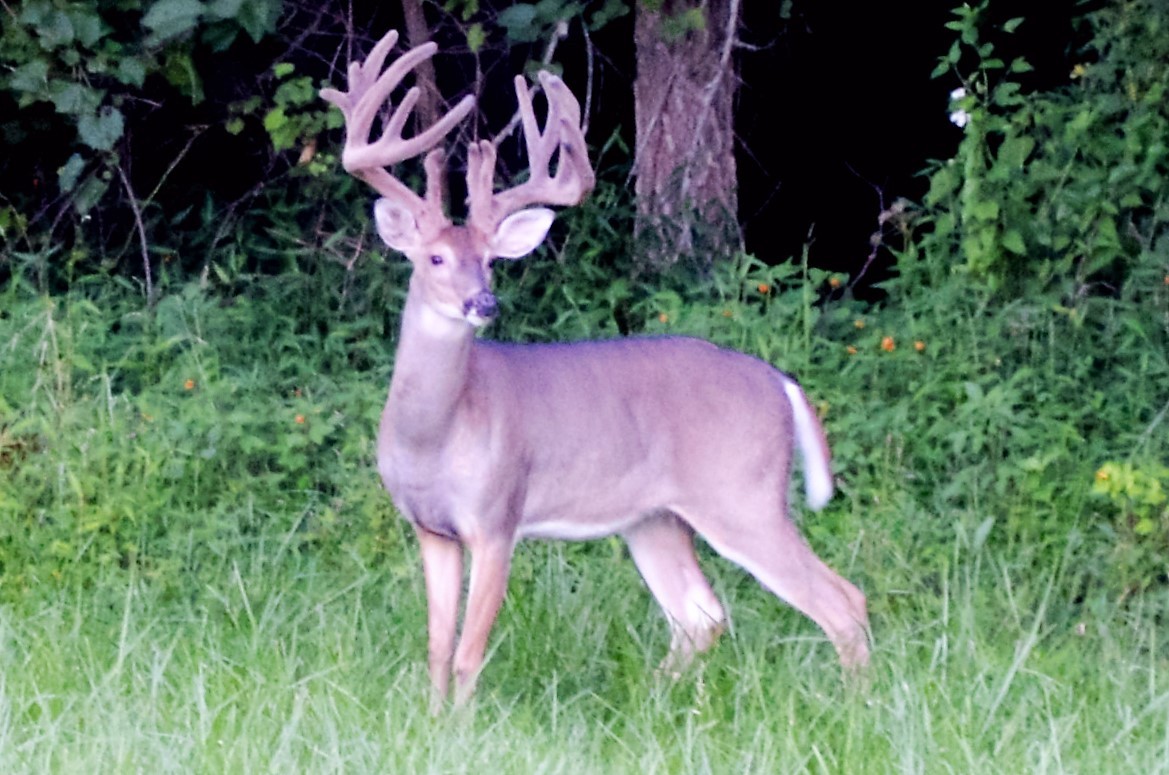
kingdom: Animalia
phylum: Chordata
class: Mammalia
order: Artiodactyla
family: Cervidae
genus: Odocoileus
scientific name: Odocoileus virginianus
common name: White-tailed deer
